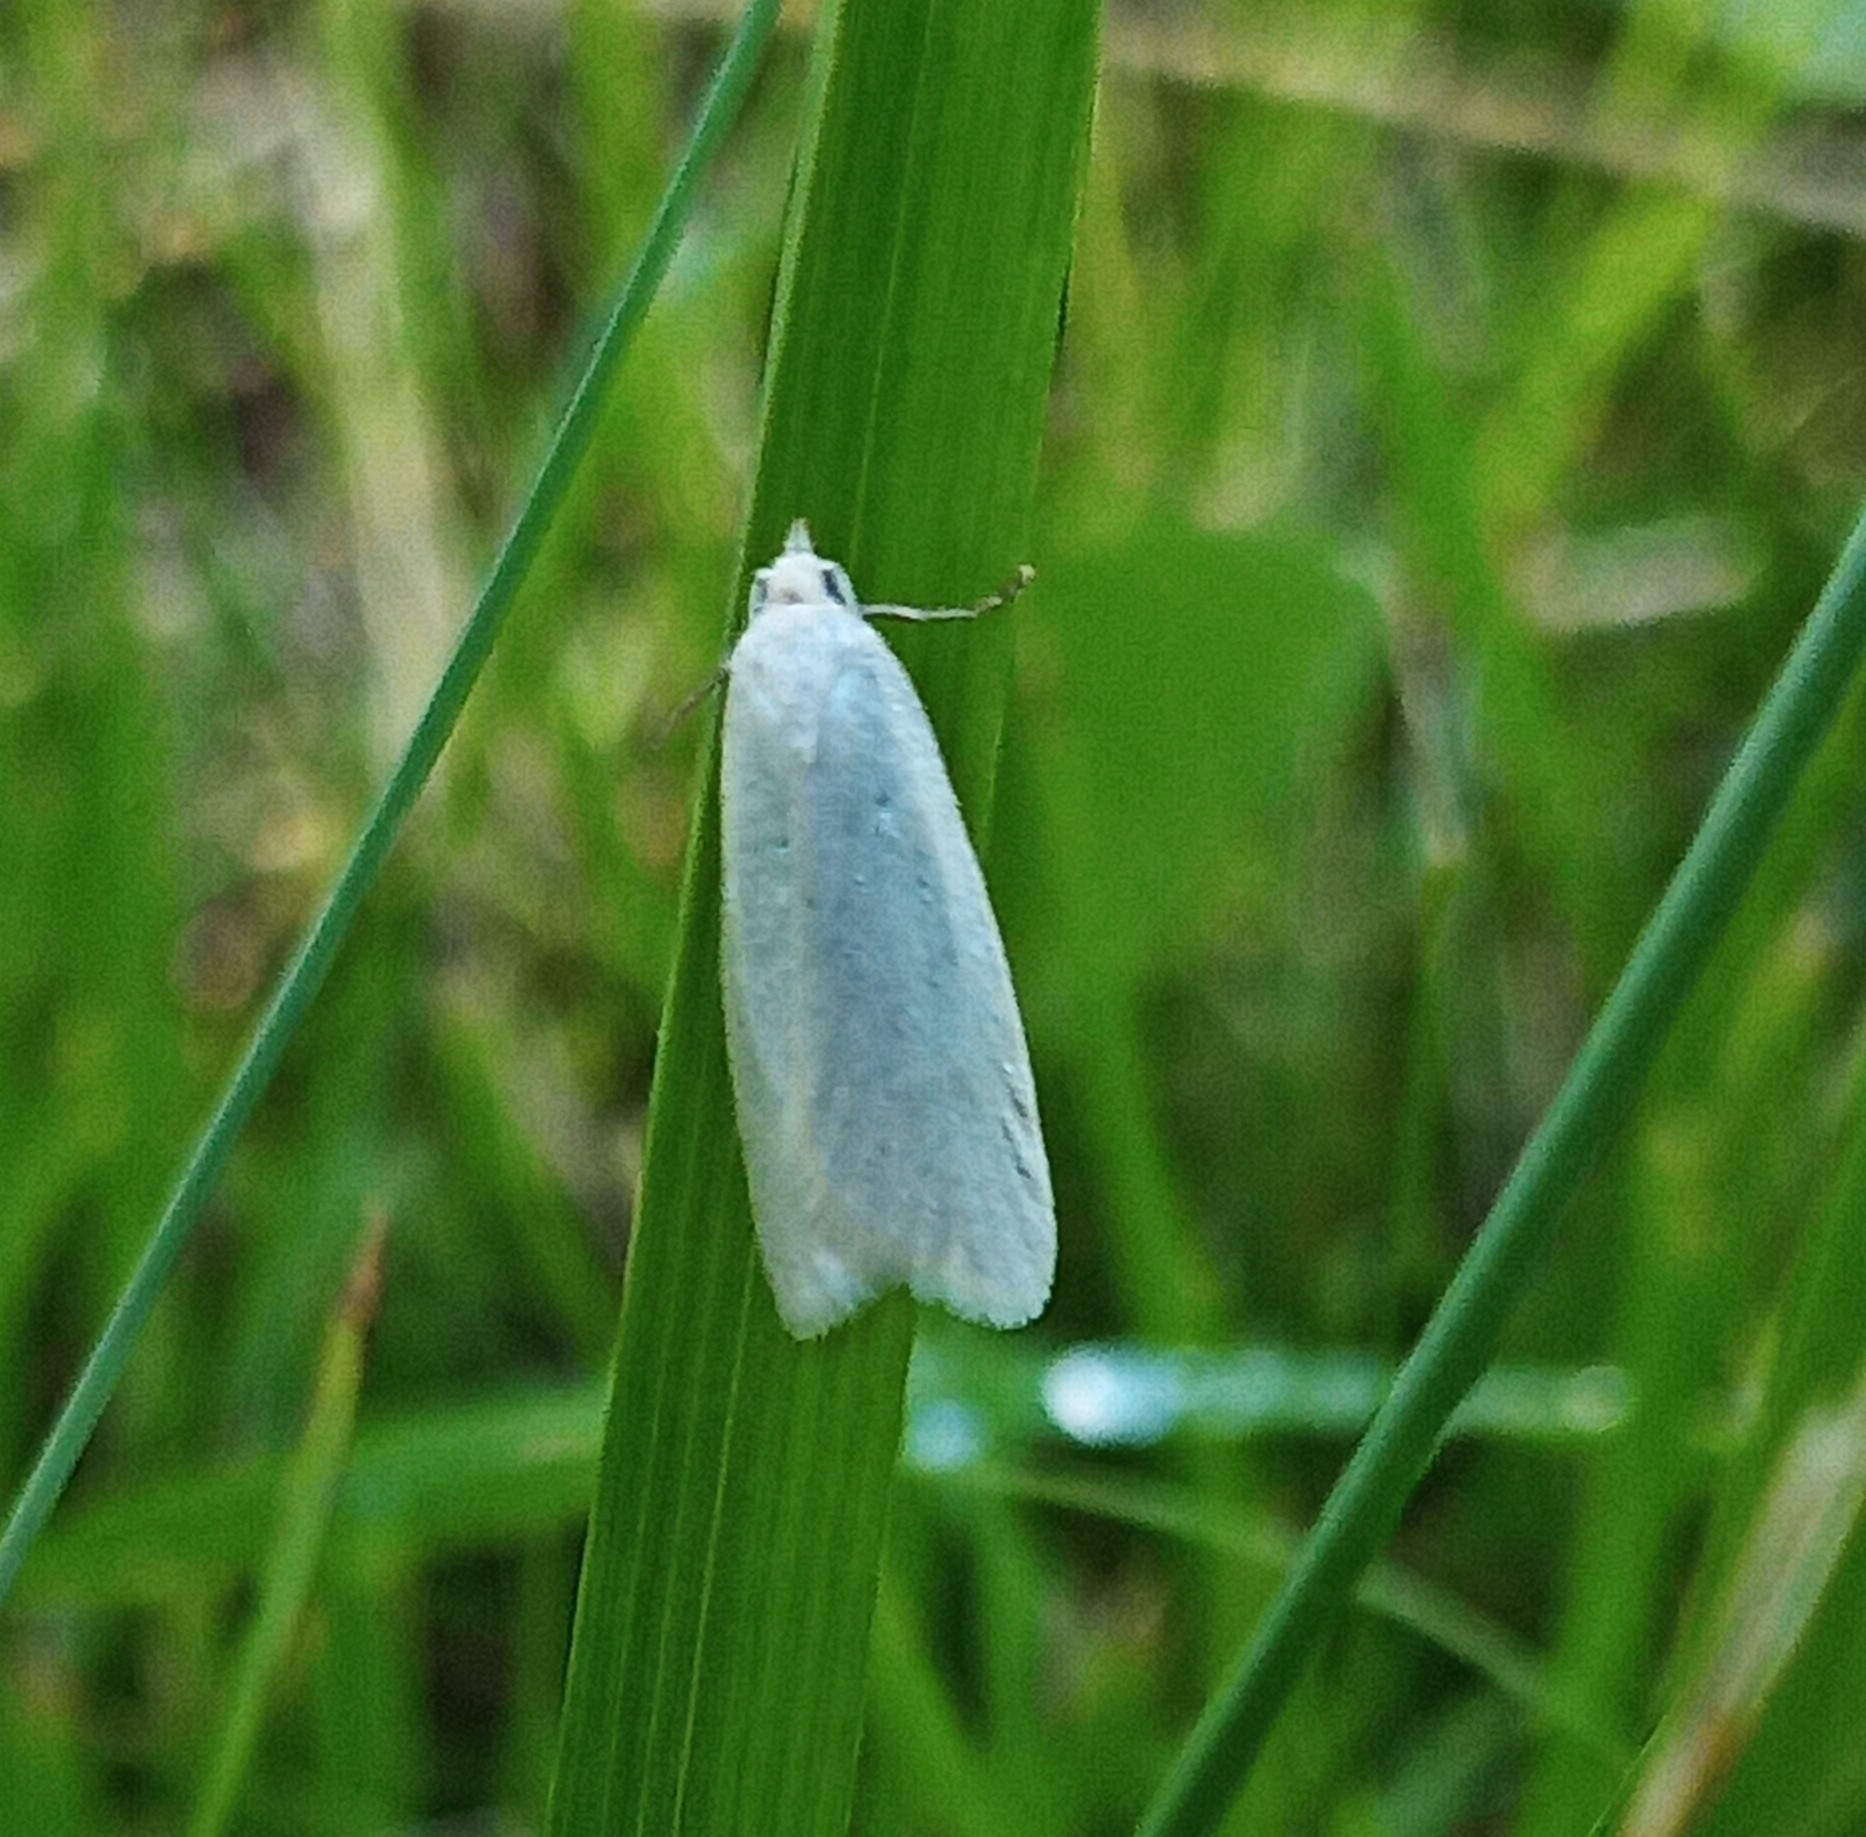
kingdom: Animalia
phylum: Arthropoda
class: Insecta
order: Lepidoptera
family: Tortricidae
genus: Eana
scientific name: Eana argentana
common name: Silver shade
